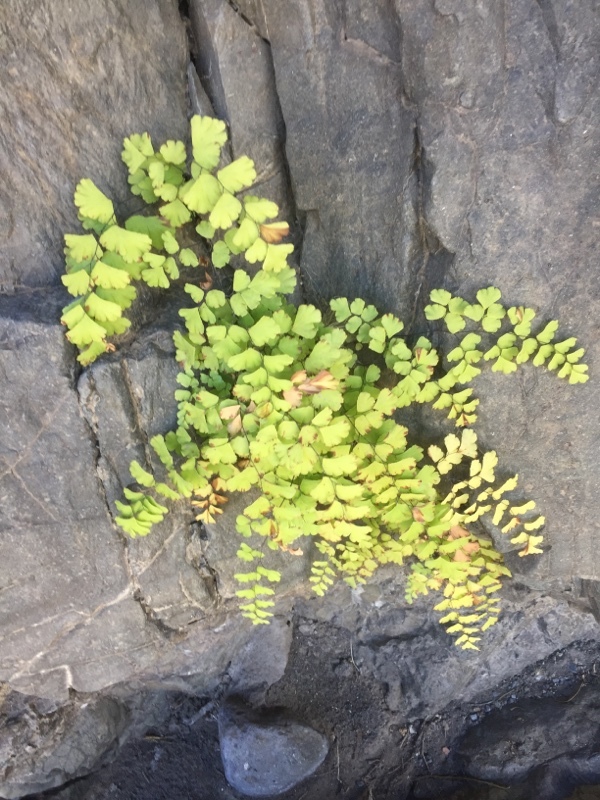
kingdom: Plantae
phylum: Tracheophyta
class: Polypodiopsida
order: Polypodiales
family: Pteridaceae
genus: Adiantum
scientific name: Adiantum capillus-veneris
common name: Maidenhair fern
